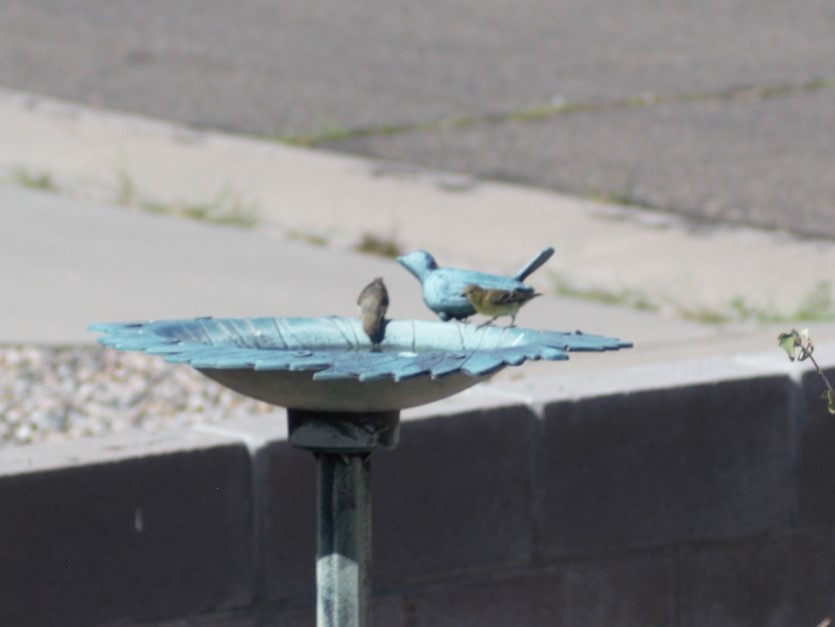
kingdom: Animalia
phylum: Chordata
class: Aves
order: Passeriformes
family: Fringillidae
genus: Spinus
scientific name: Spinus psaltria
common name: Lesser goldfinch
